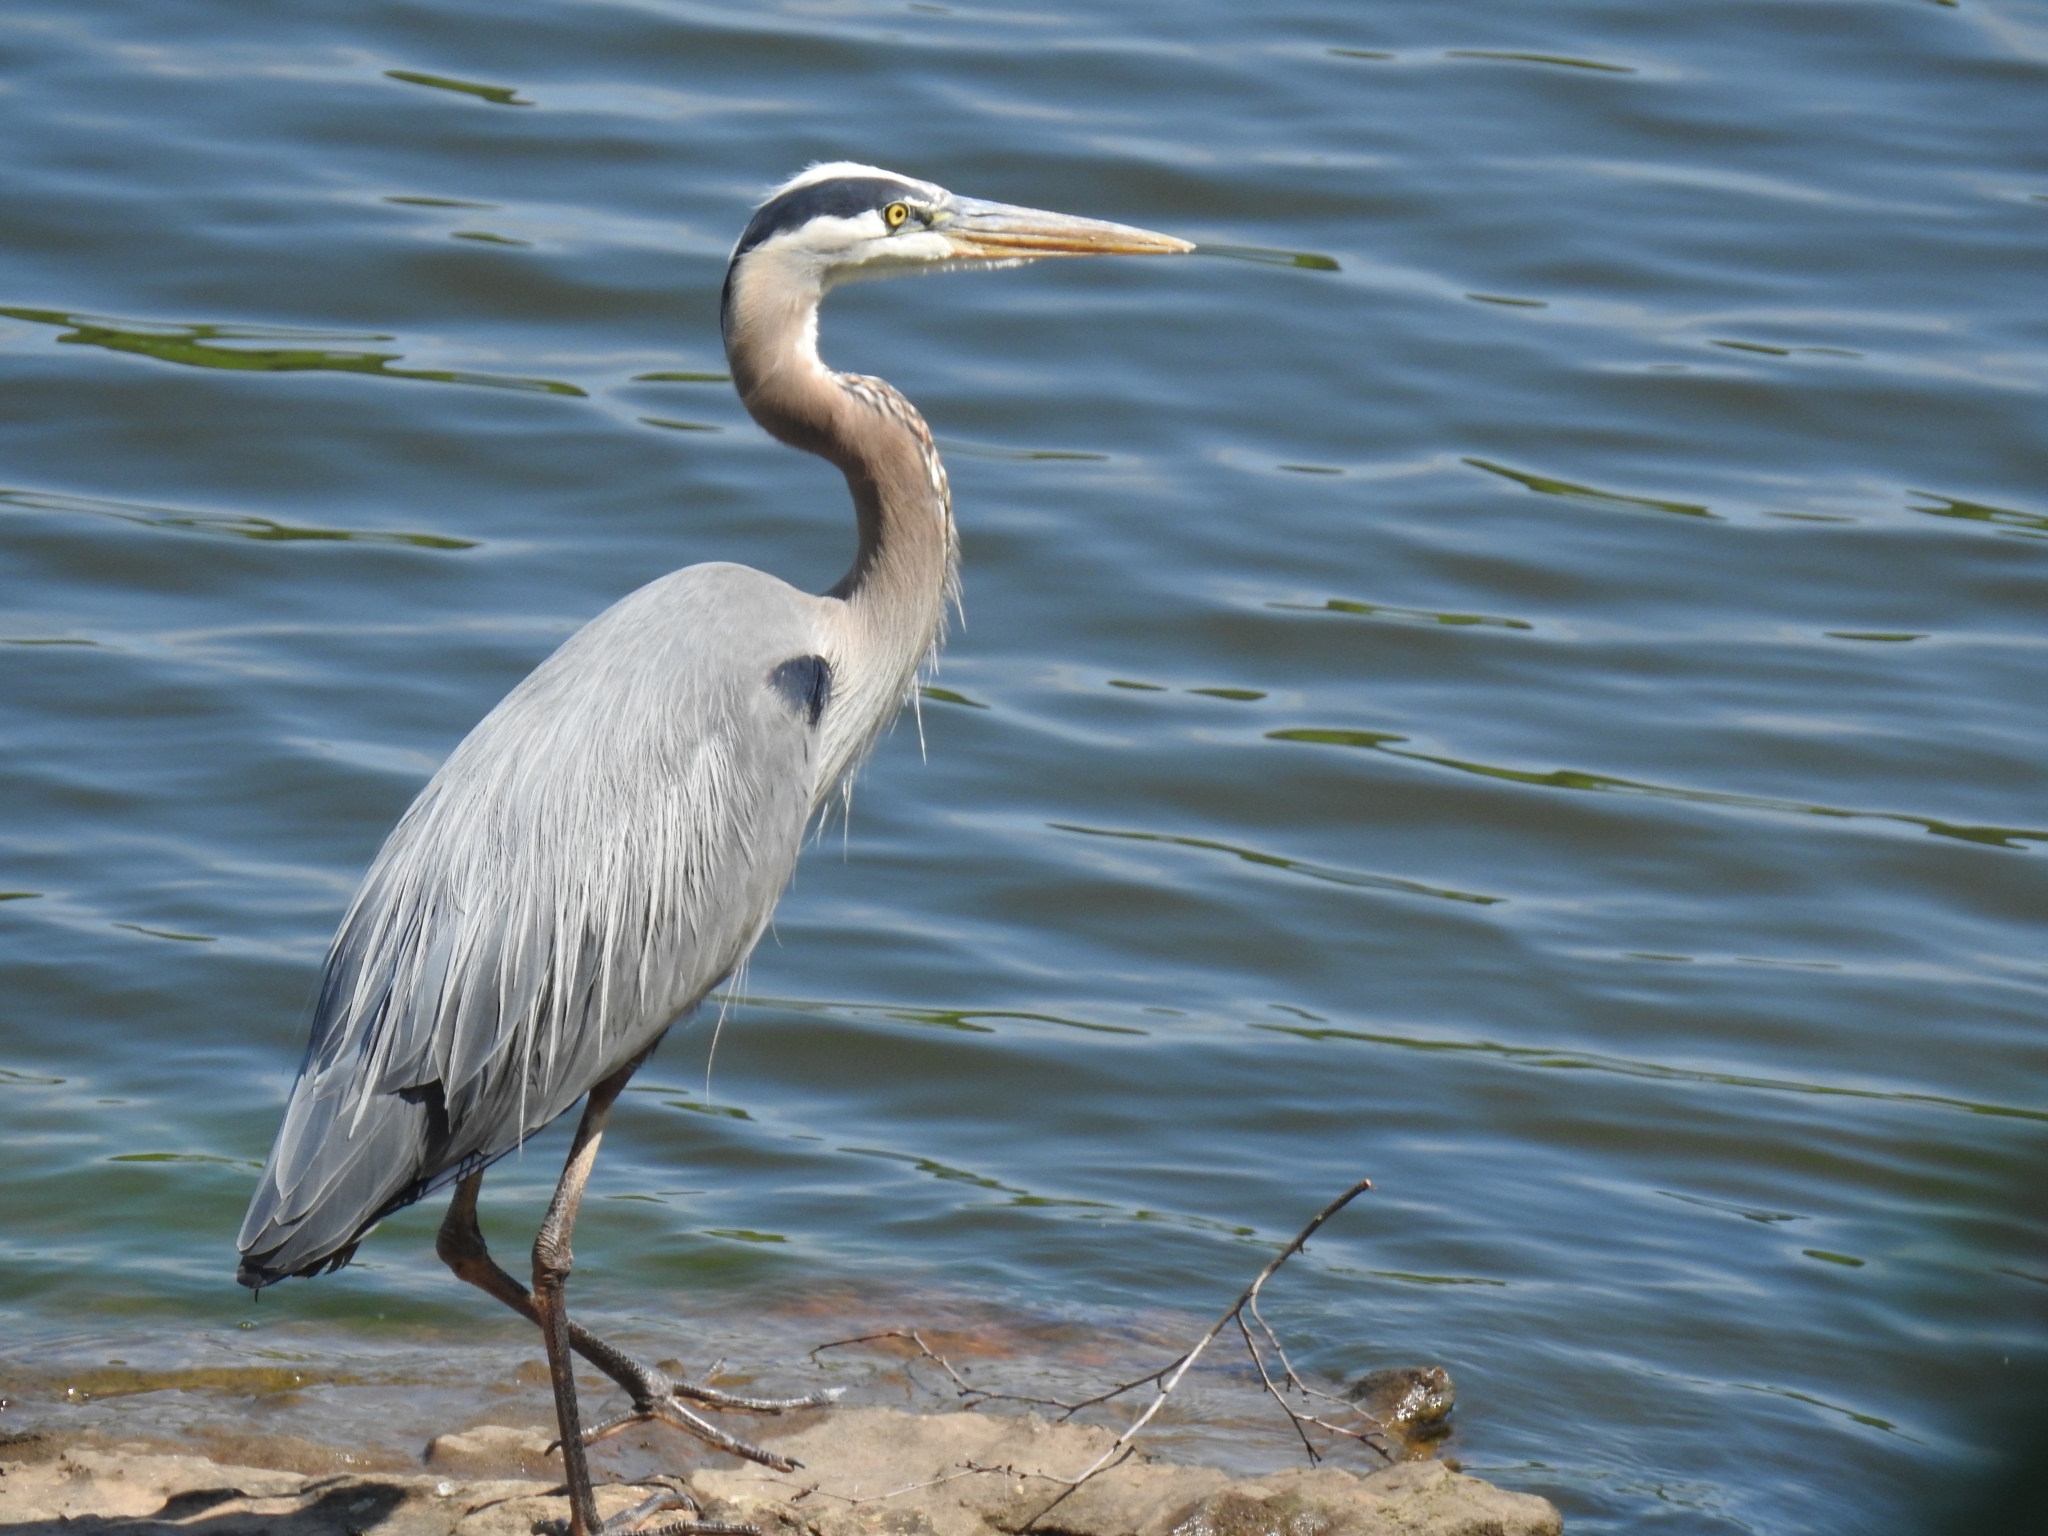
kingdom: Animalia
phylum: Chordata
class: Aves
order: Pelecaniformes
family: Ardeidae
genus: Ardea
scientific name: Ardea herodias
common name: Great blue heron
